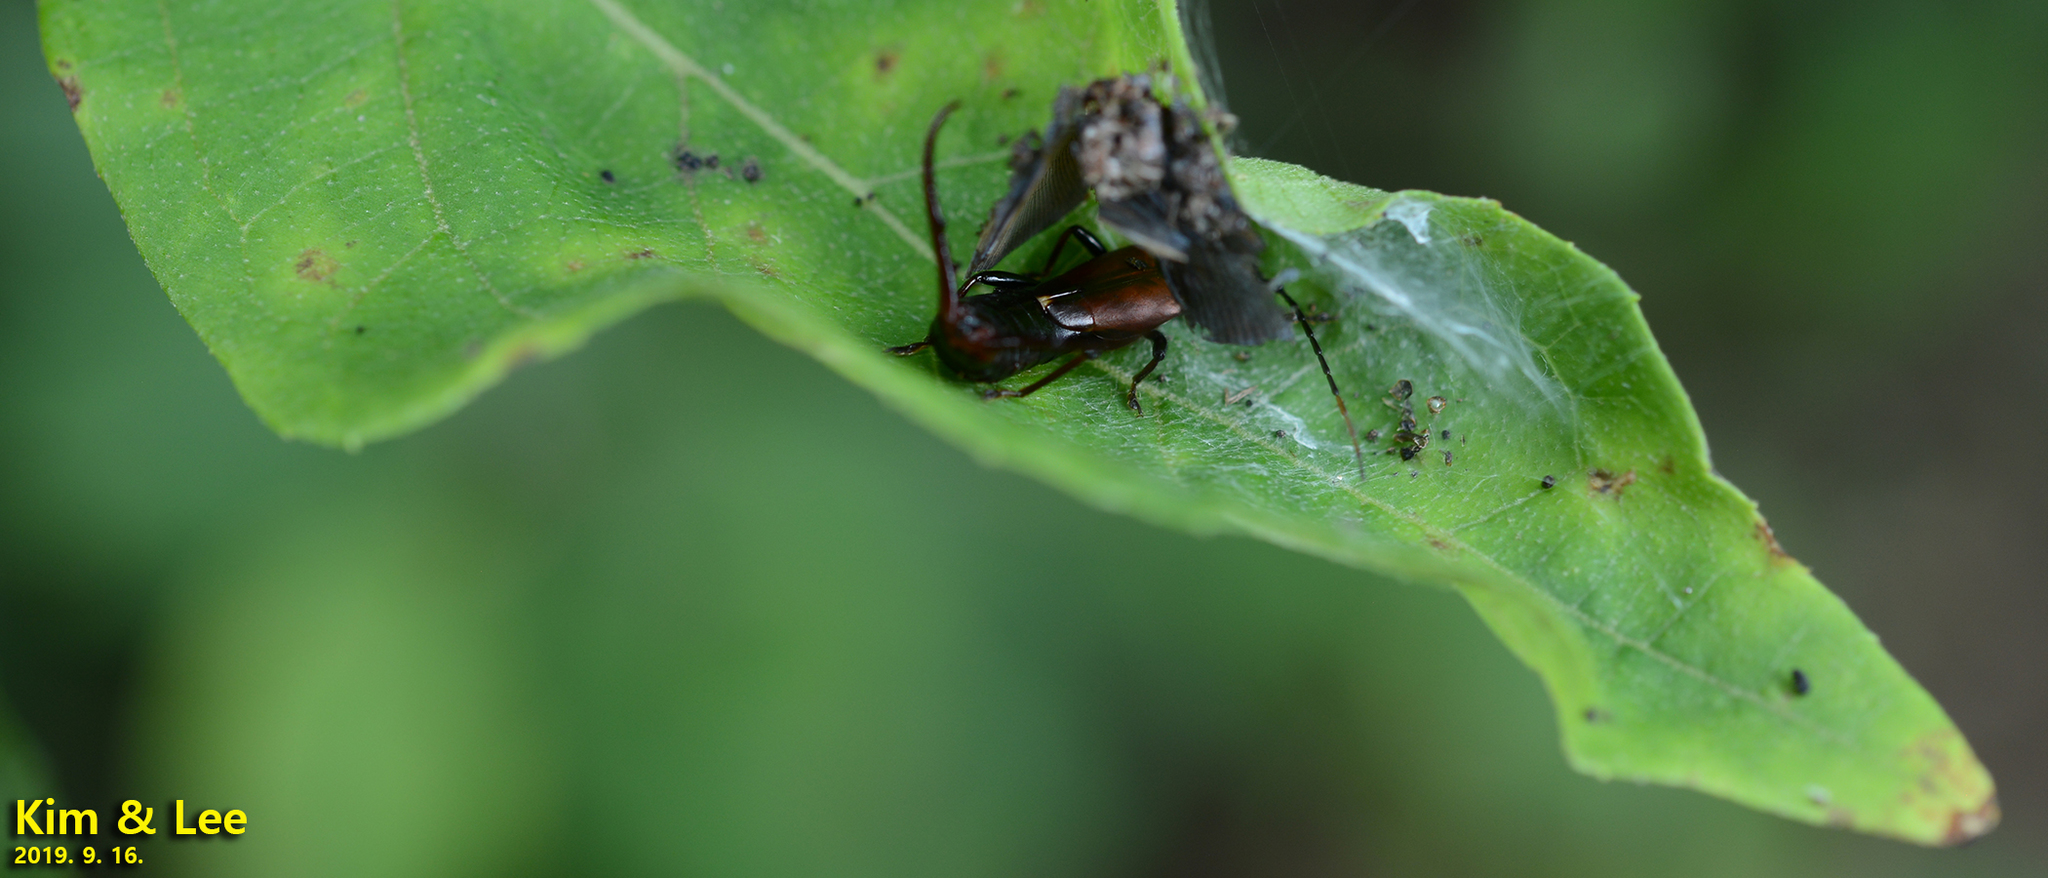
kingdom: Animalia
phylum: Arthropoda
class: Insecta
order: Dermaptera
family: Forficulidae
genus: Timomenus
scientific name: Timomenus komarovi
